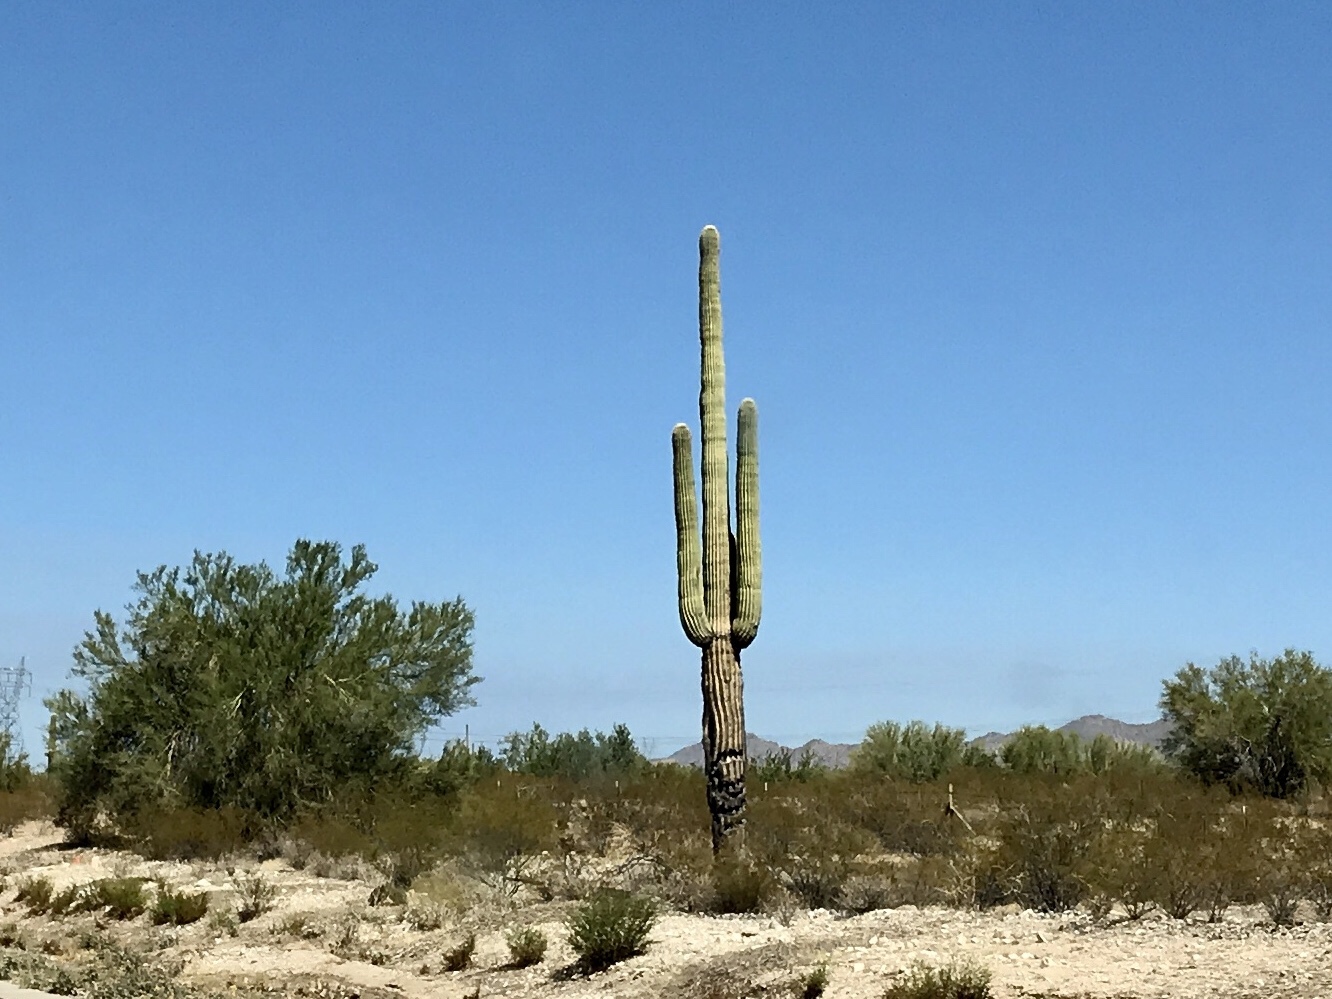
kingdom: Plantae
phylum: Tracheophyta
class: Magnoliopsida
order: Caryophyllales
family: Cactaceae
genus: Carnegiea
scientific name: Carnegiea gigantea
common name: Saguaro
